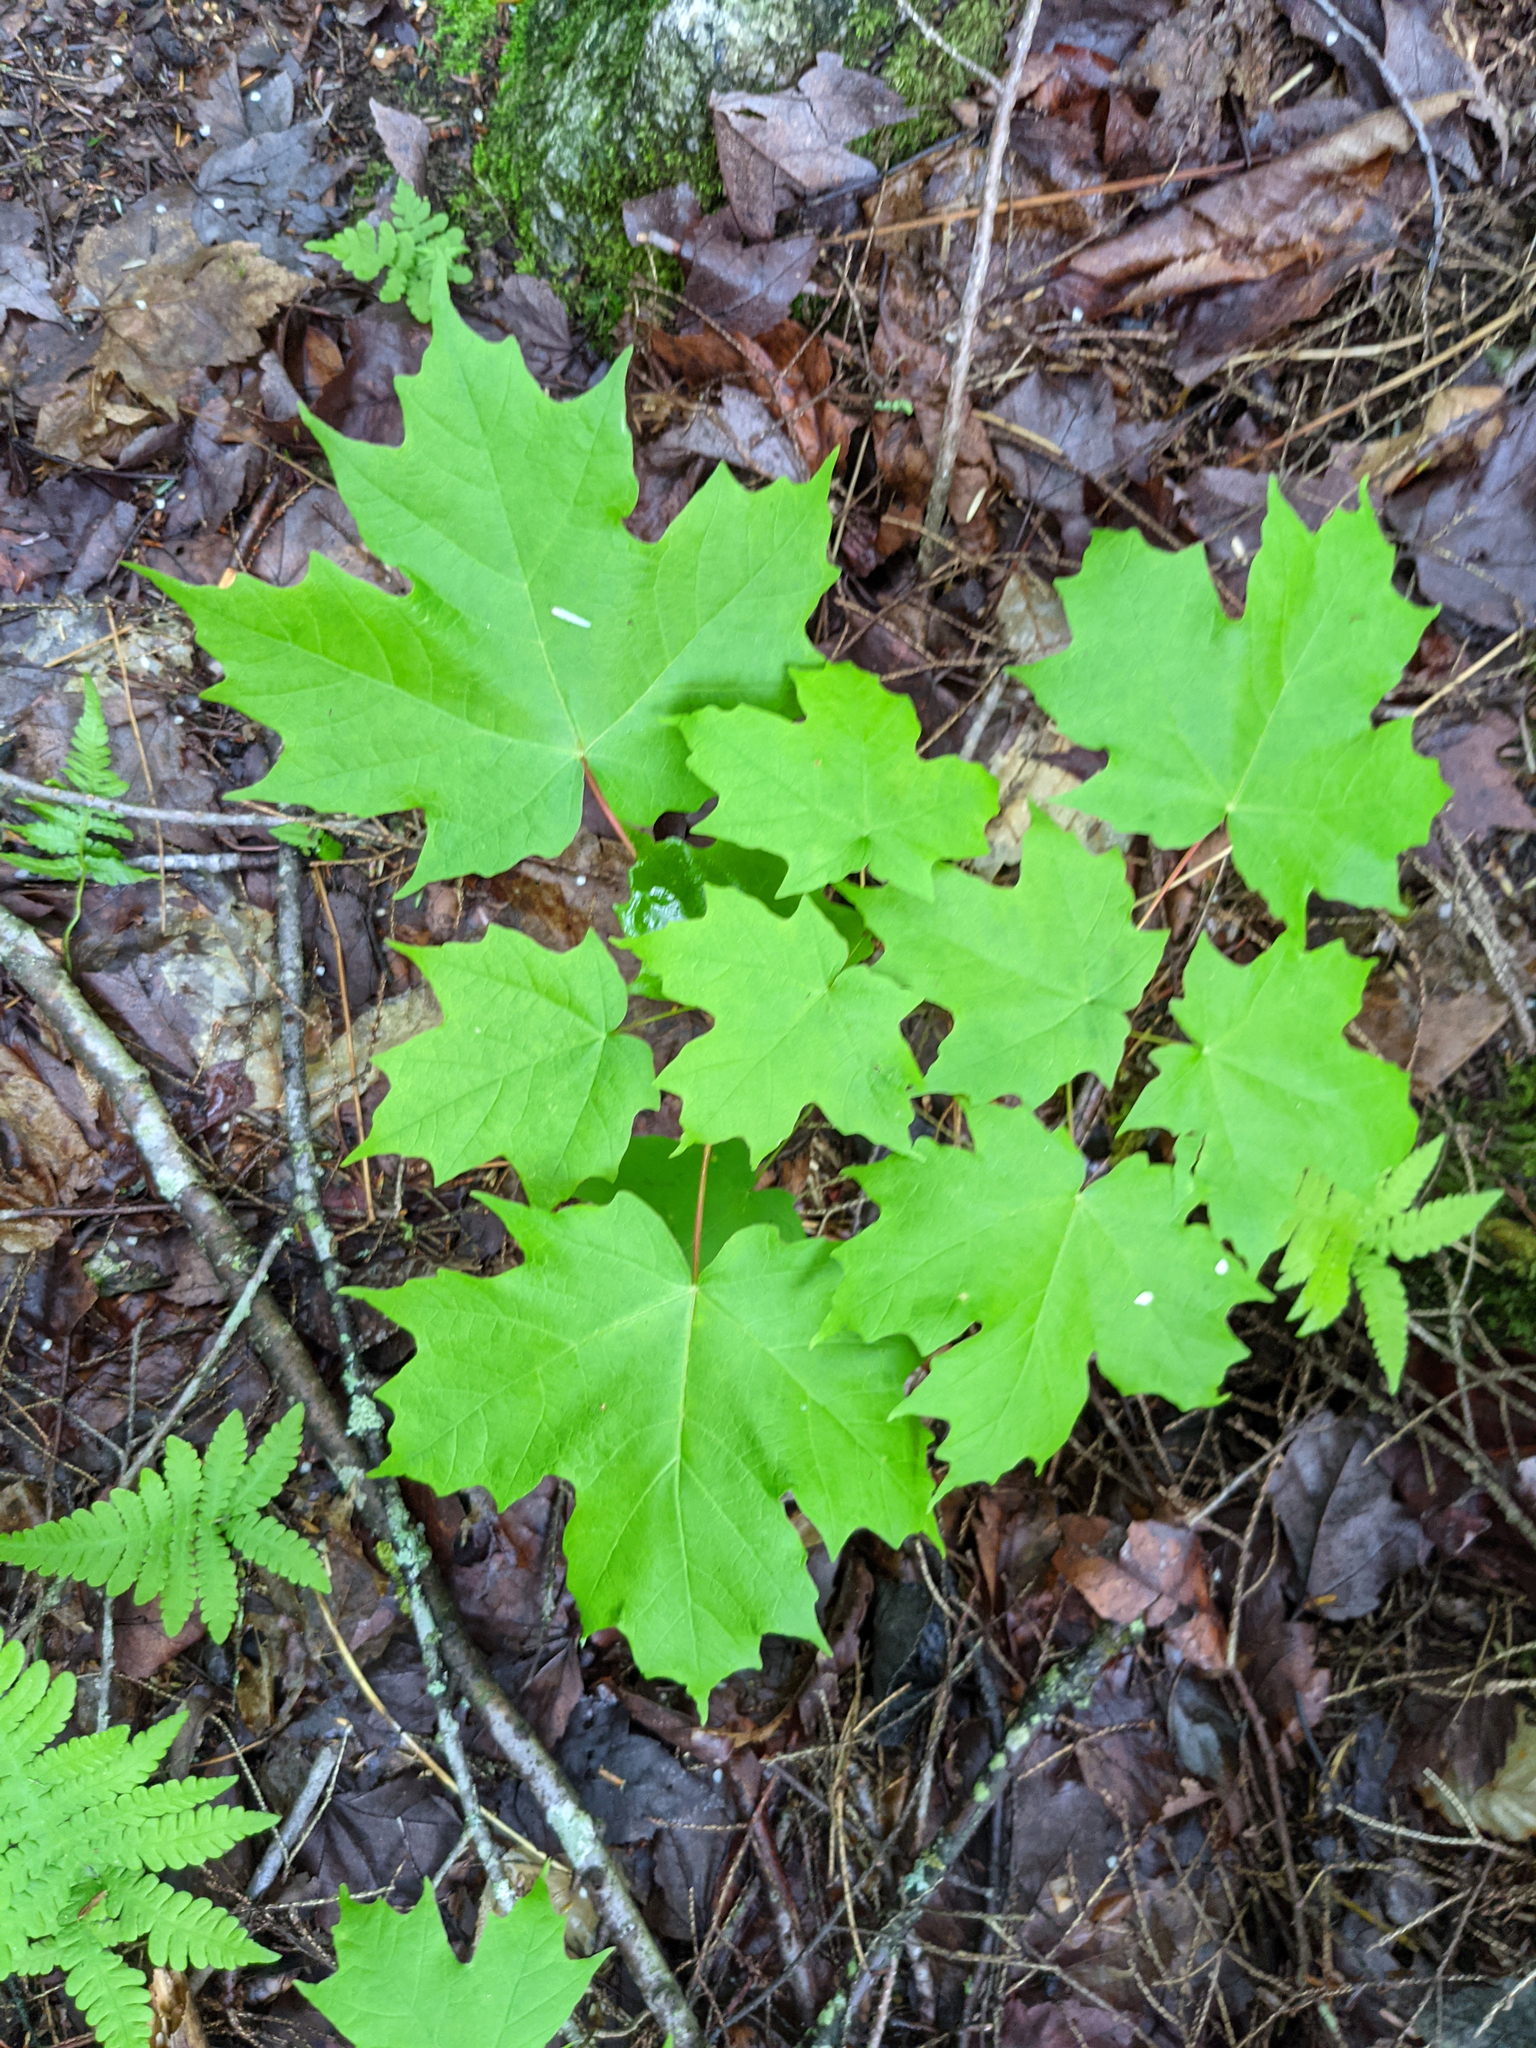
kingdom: Plantae
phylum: Tracheophyta
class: Magnoliopsida
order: Sapindales
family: Sapindaceae
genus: Acer
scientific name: Acer saccharum
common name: Sugar maple
